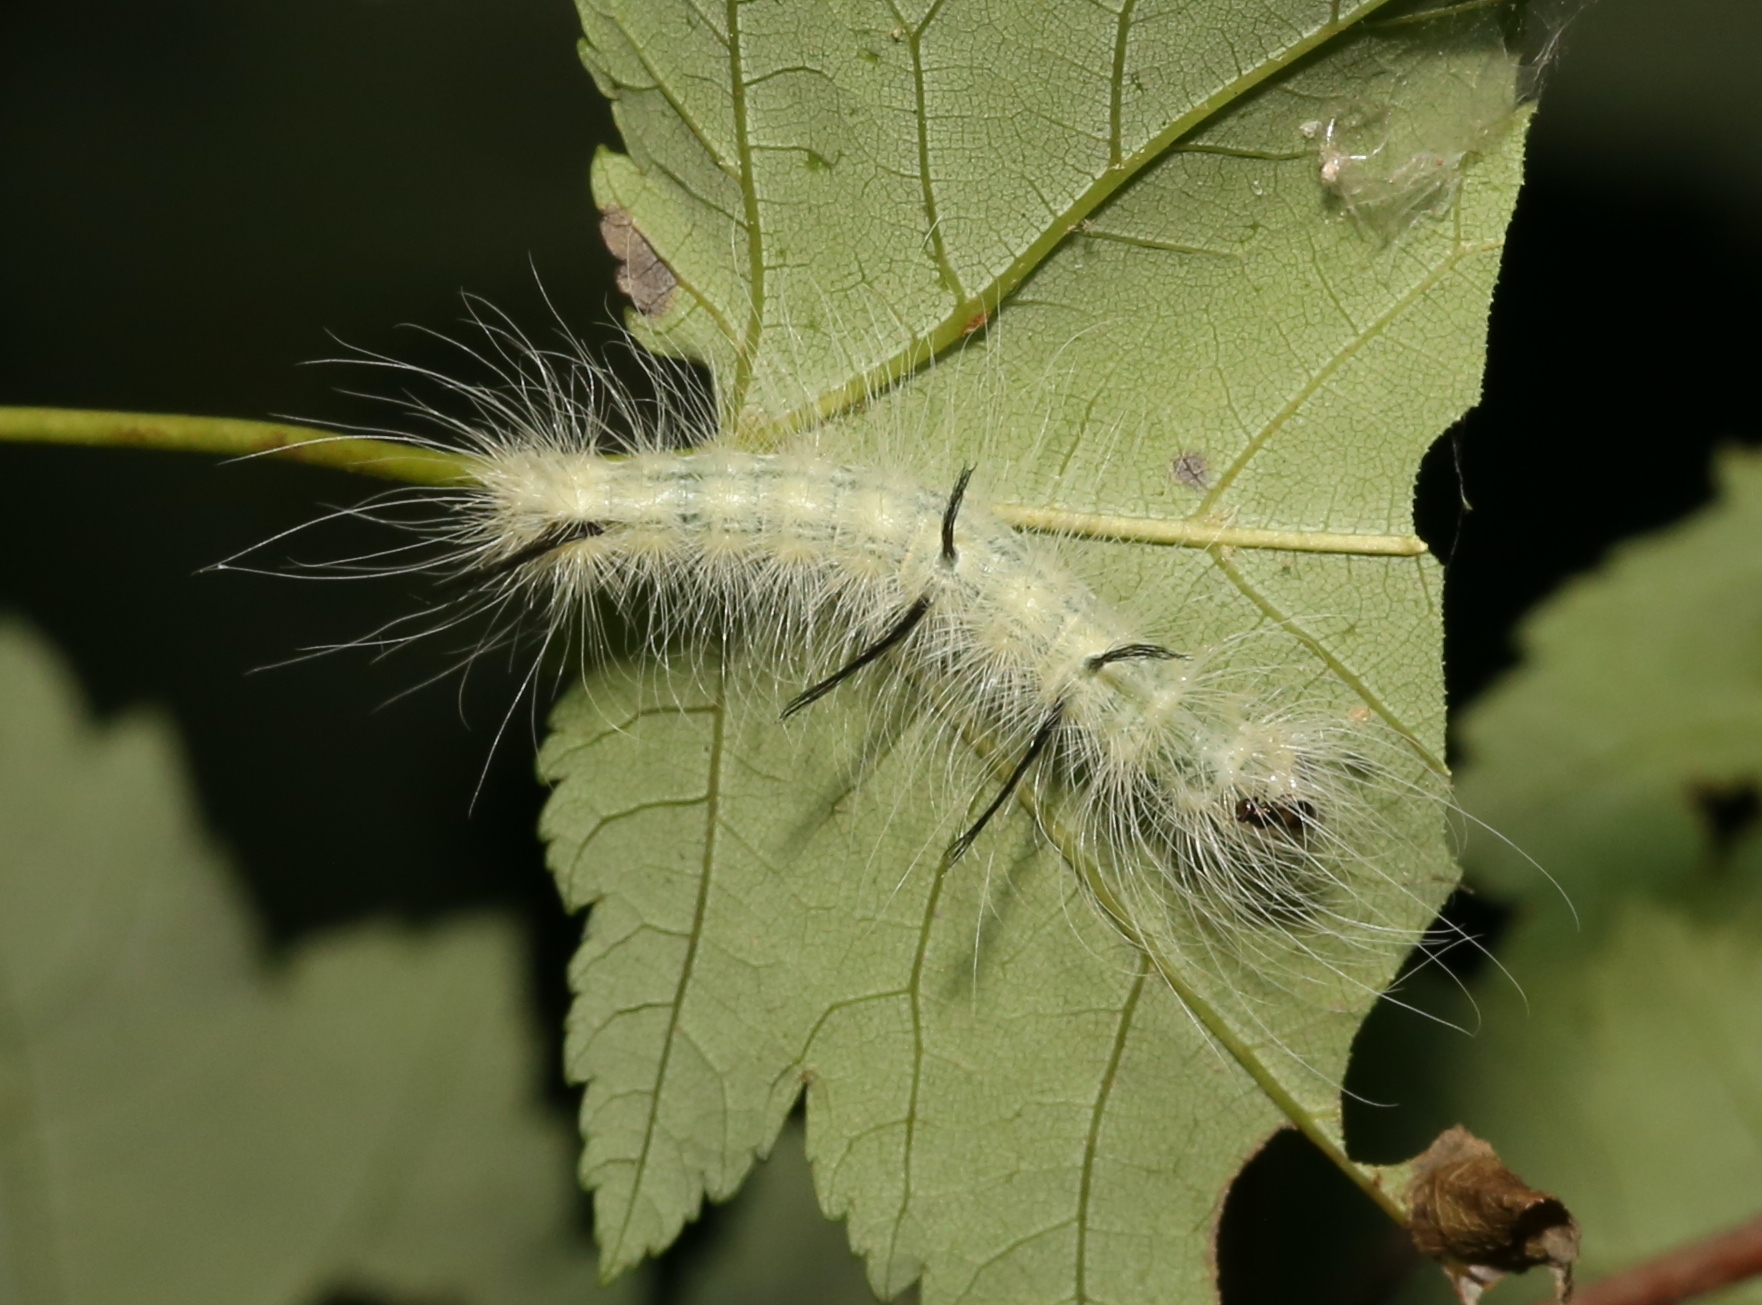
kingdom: Animalia
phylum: Arthropoda
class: Insecta
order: Lepidoptera
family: Noctuidae
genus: Acronicta
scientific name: Acronicta americana
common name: American dagger
